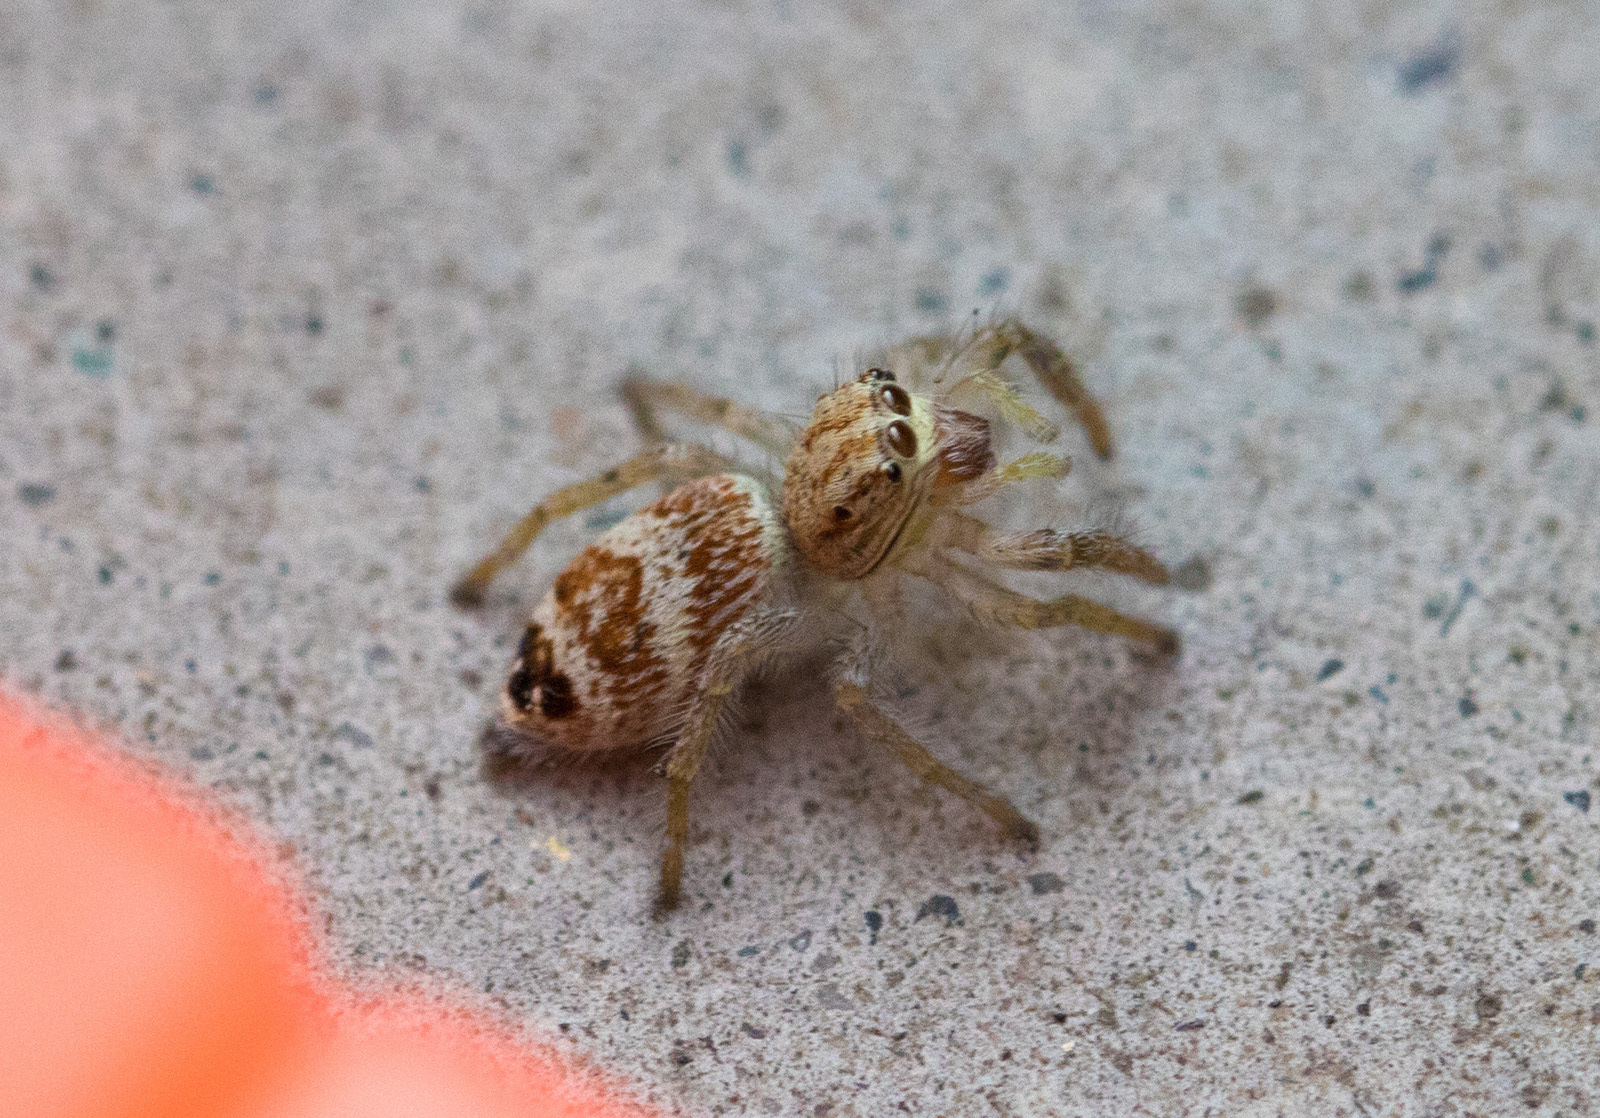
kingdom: Animalia
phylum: Arthropoda
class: Arachnida
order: Araneae
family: Salticidae
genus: Rudakius
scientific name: Rudakius cinctus
